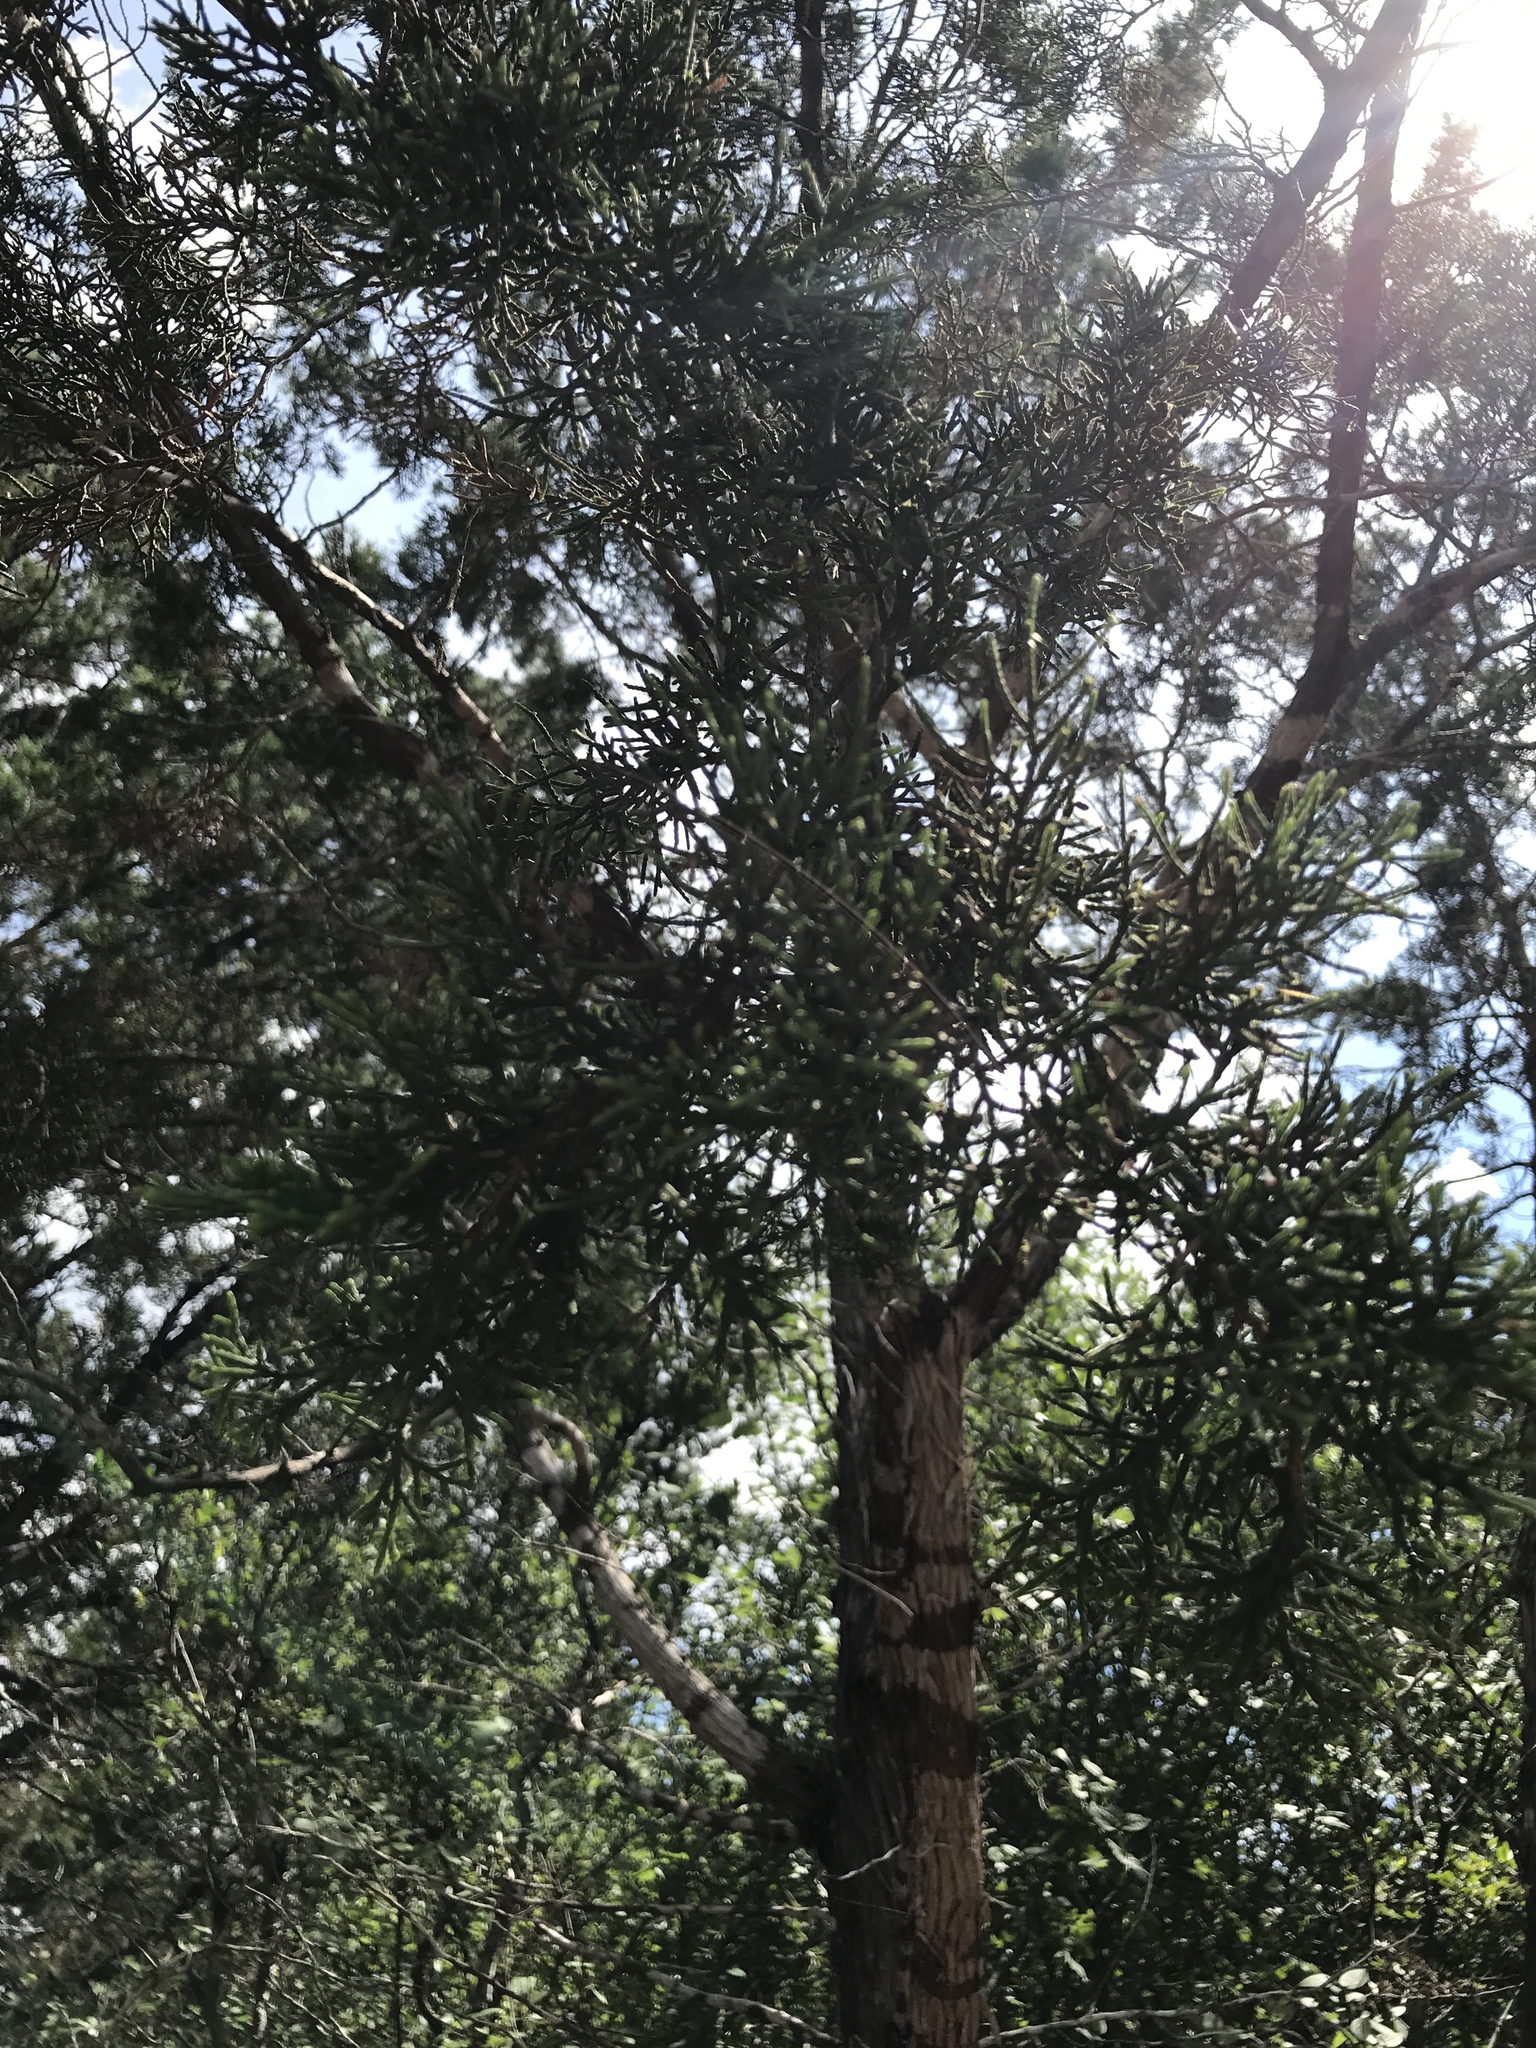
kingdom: Plantae
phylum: Tracheophyta
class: Pinopsida
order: Pinales
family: Cupressaceae
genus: Juniperus
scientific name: Juniperus ashei
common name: Mexican juniper
